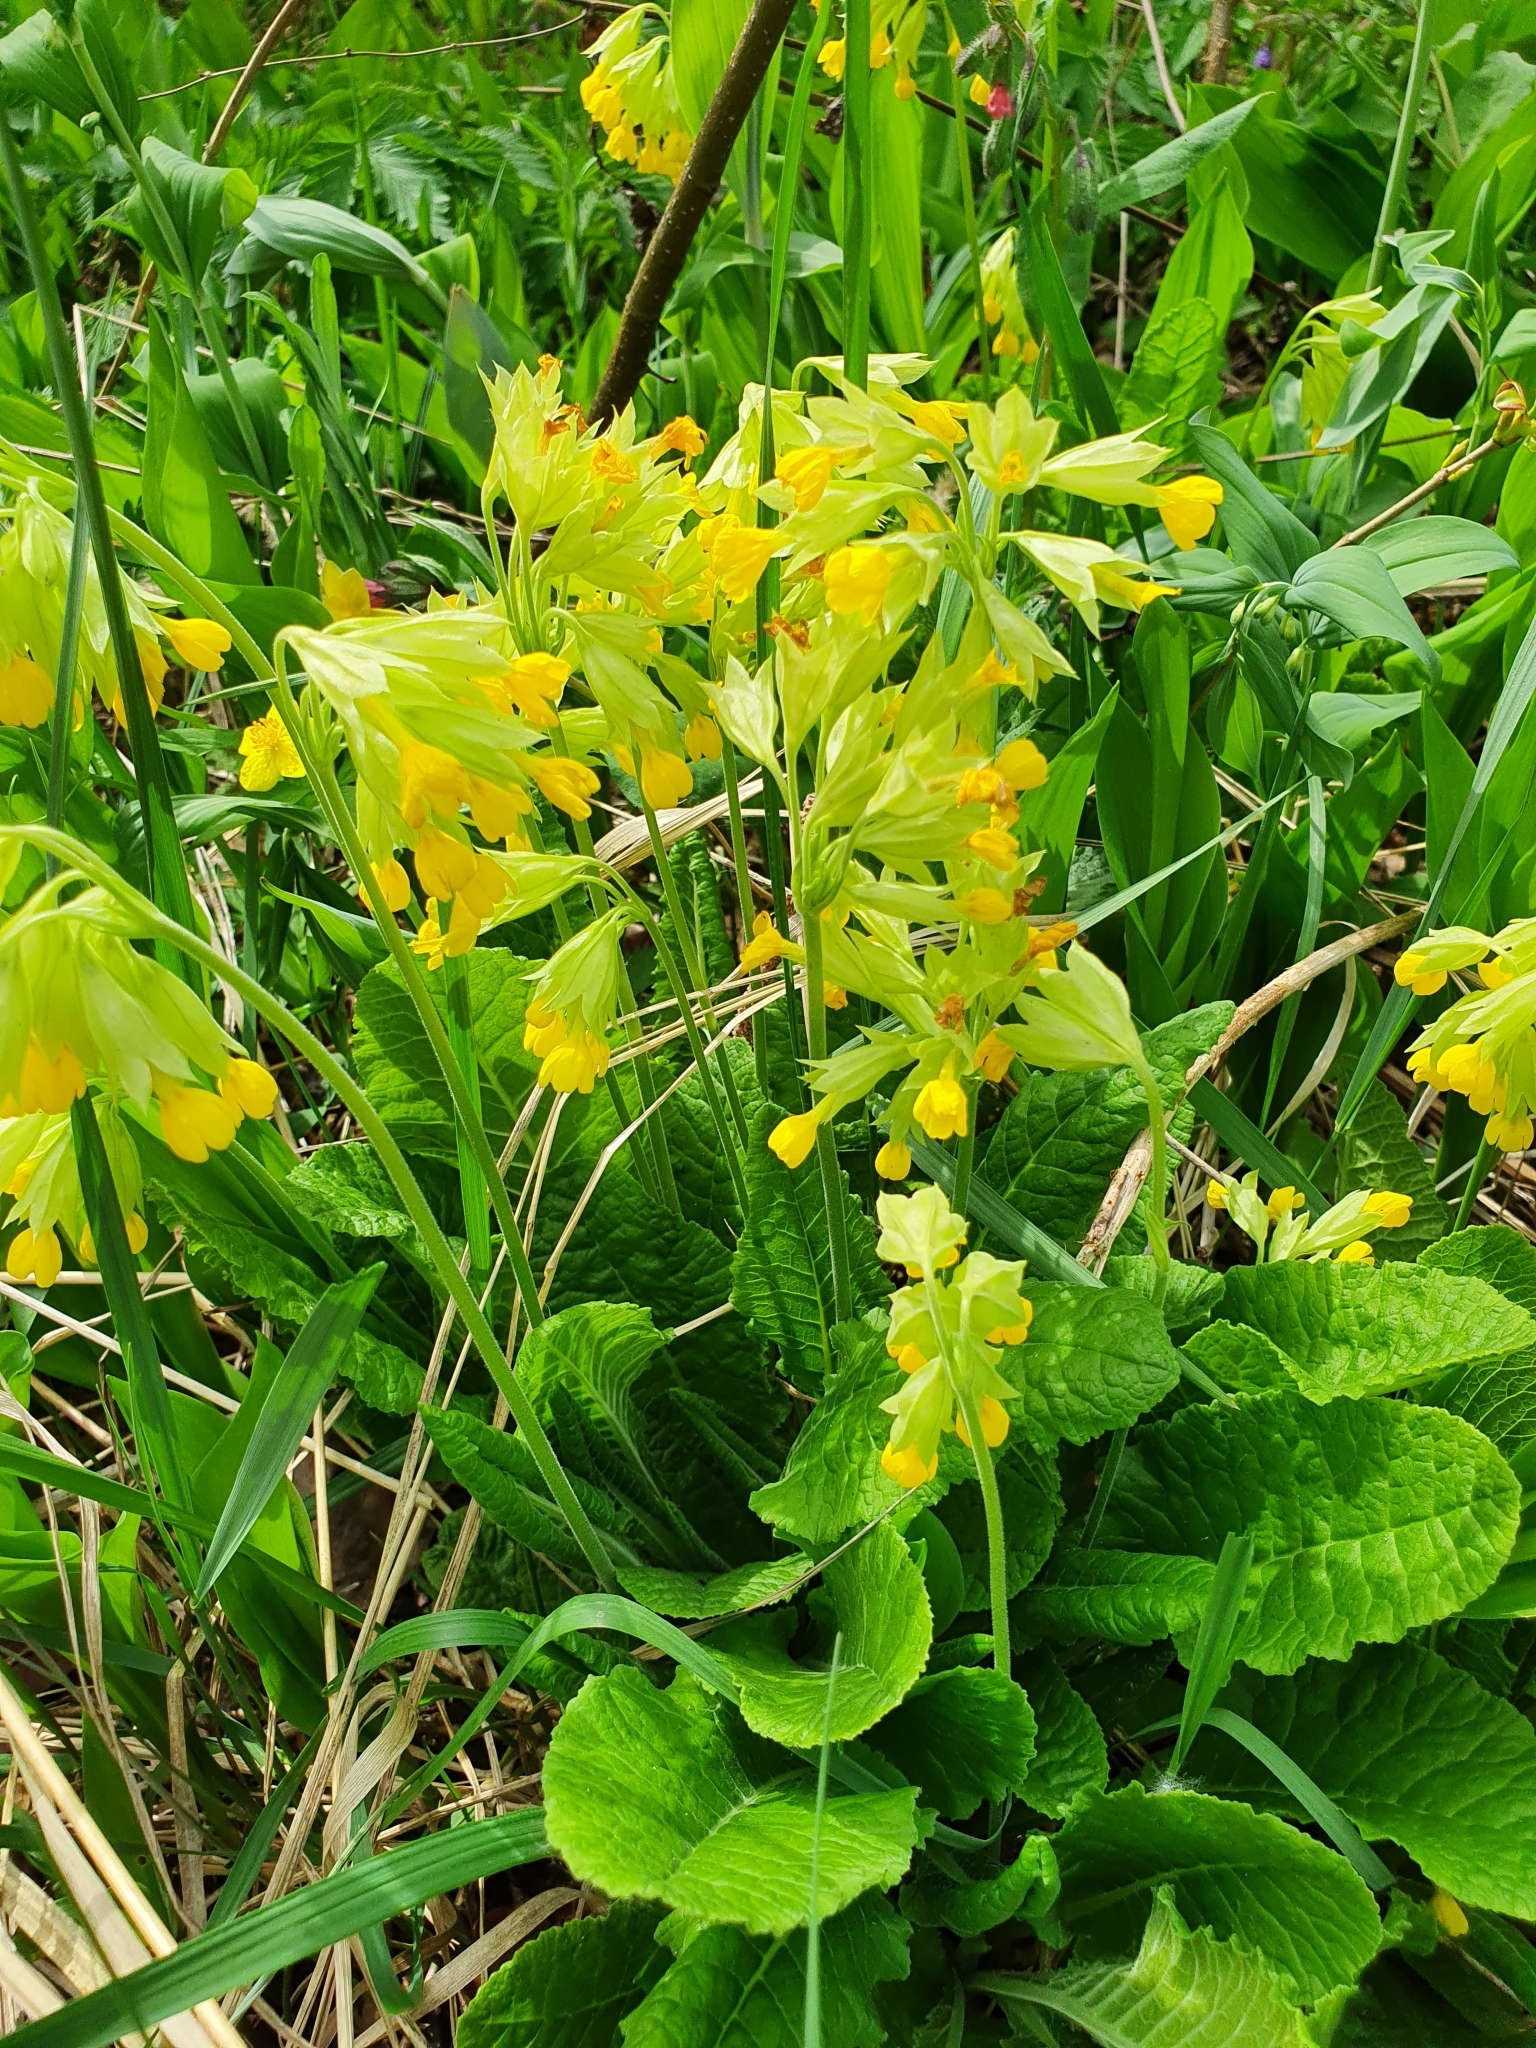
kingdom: Plantae
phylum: Tracheophyta
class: Magnoliopsida
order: Ericales
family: Primulaceae
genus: Primula
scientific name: Primula veris
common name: Cowslip
